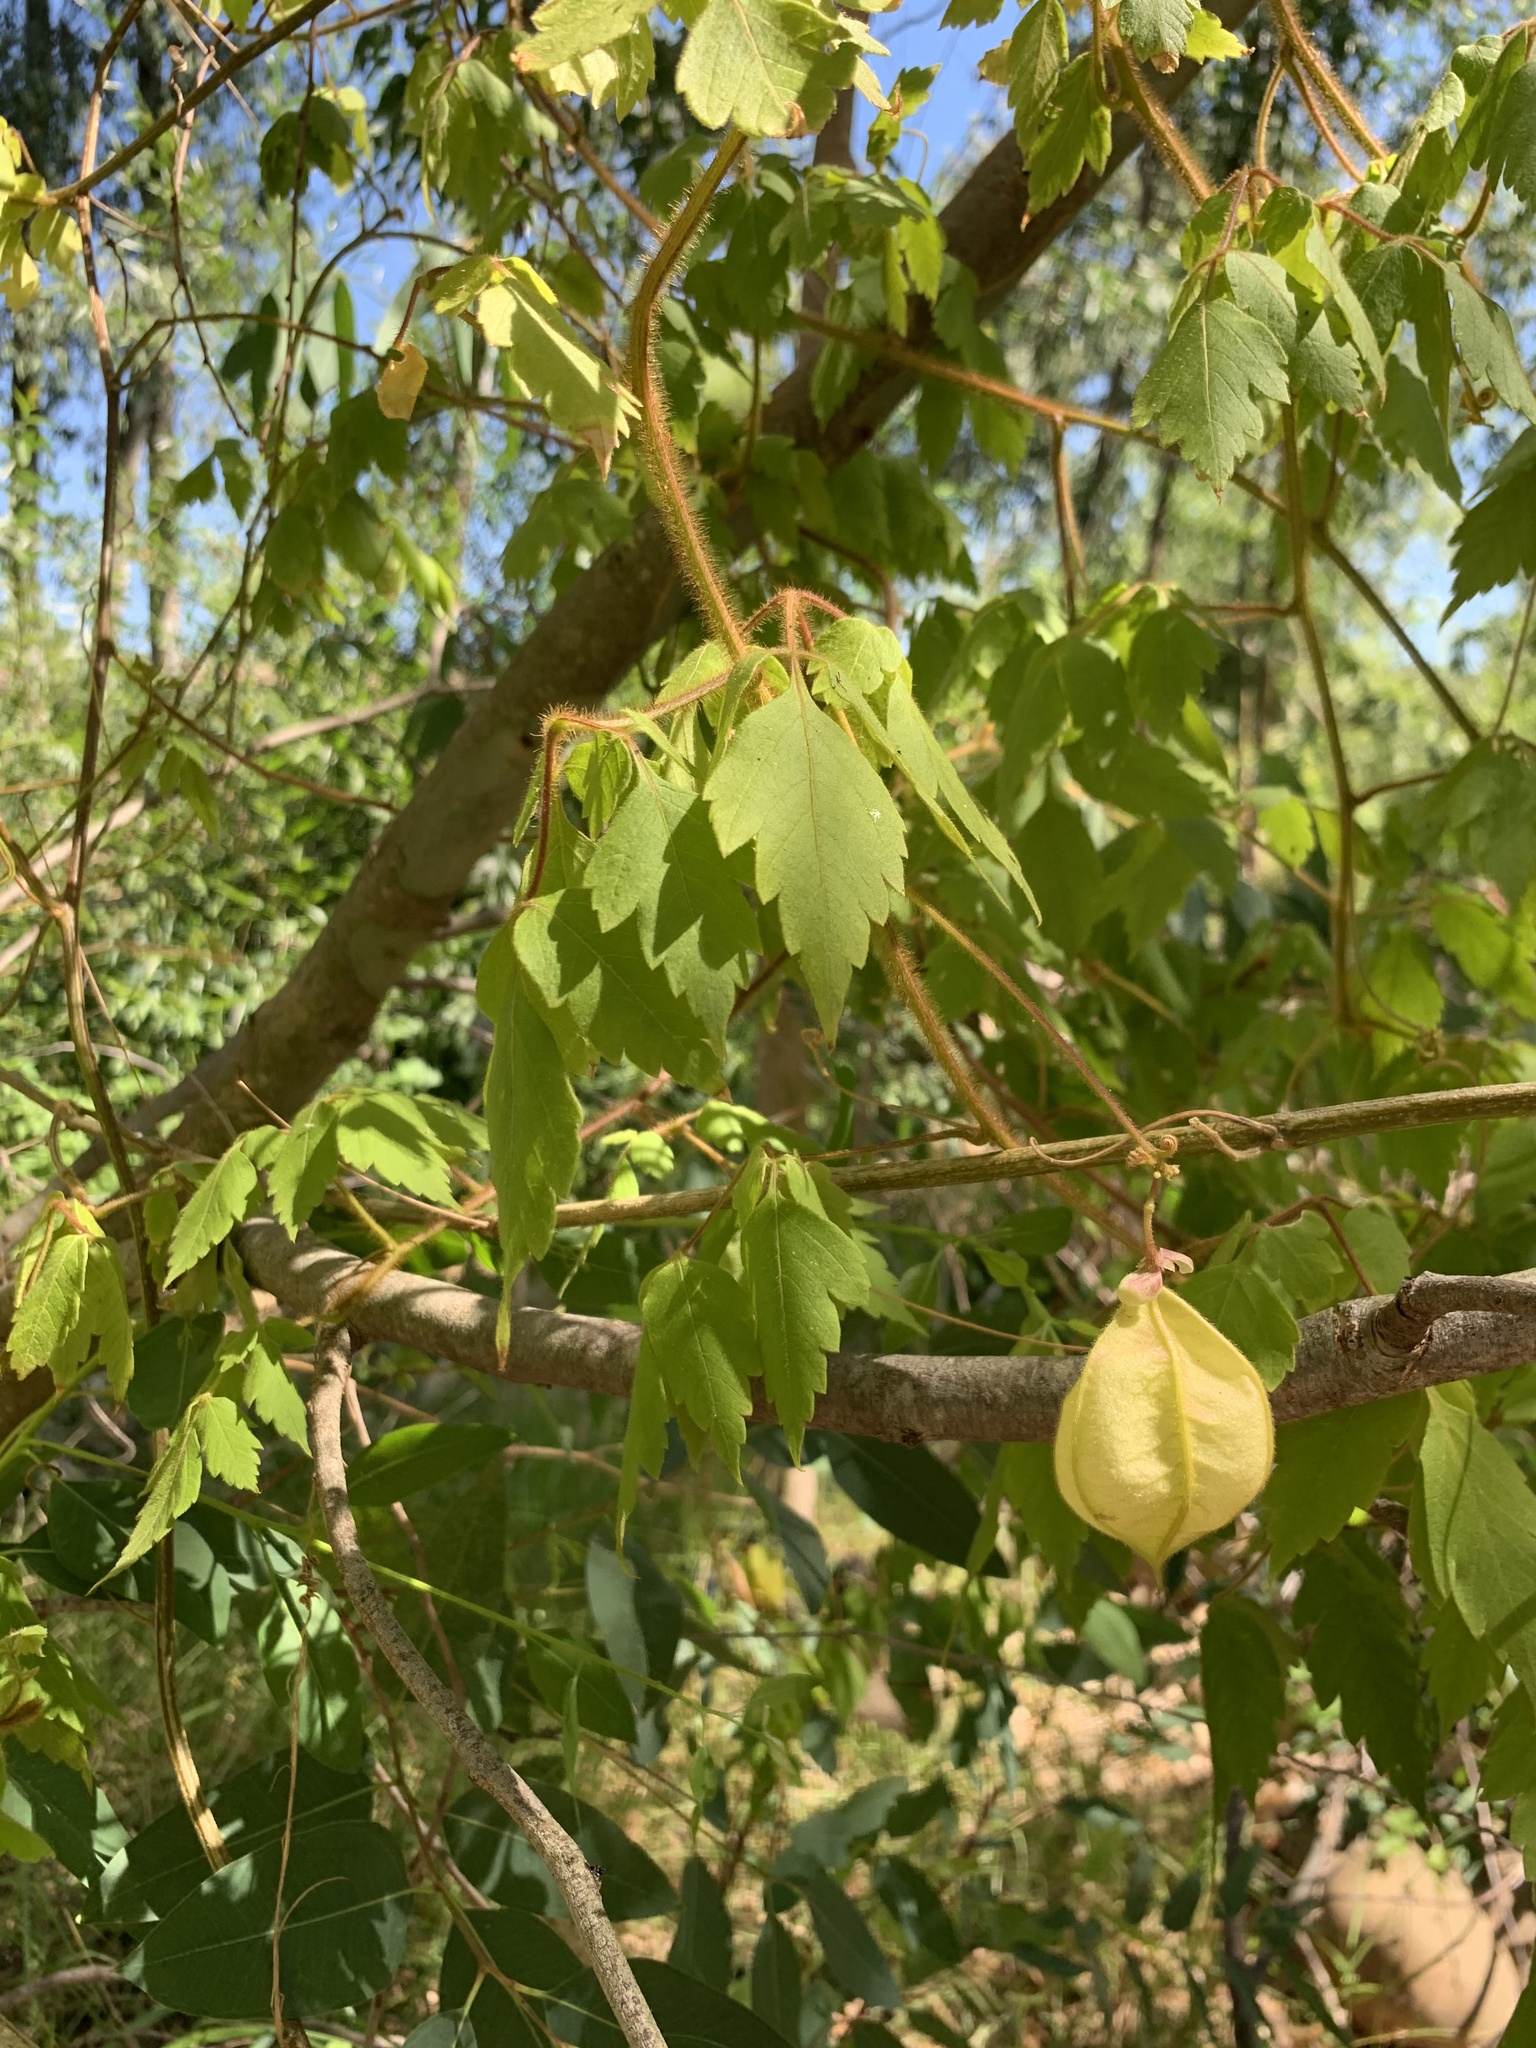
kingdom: Plantae
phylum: Tracheophyta
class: Magnoliopsida
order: Sapindales
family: Sapindaceae
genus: Cardiospermum
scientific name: Cardiospermum grandiflorum
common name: Balloon vine
